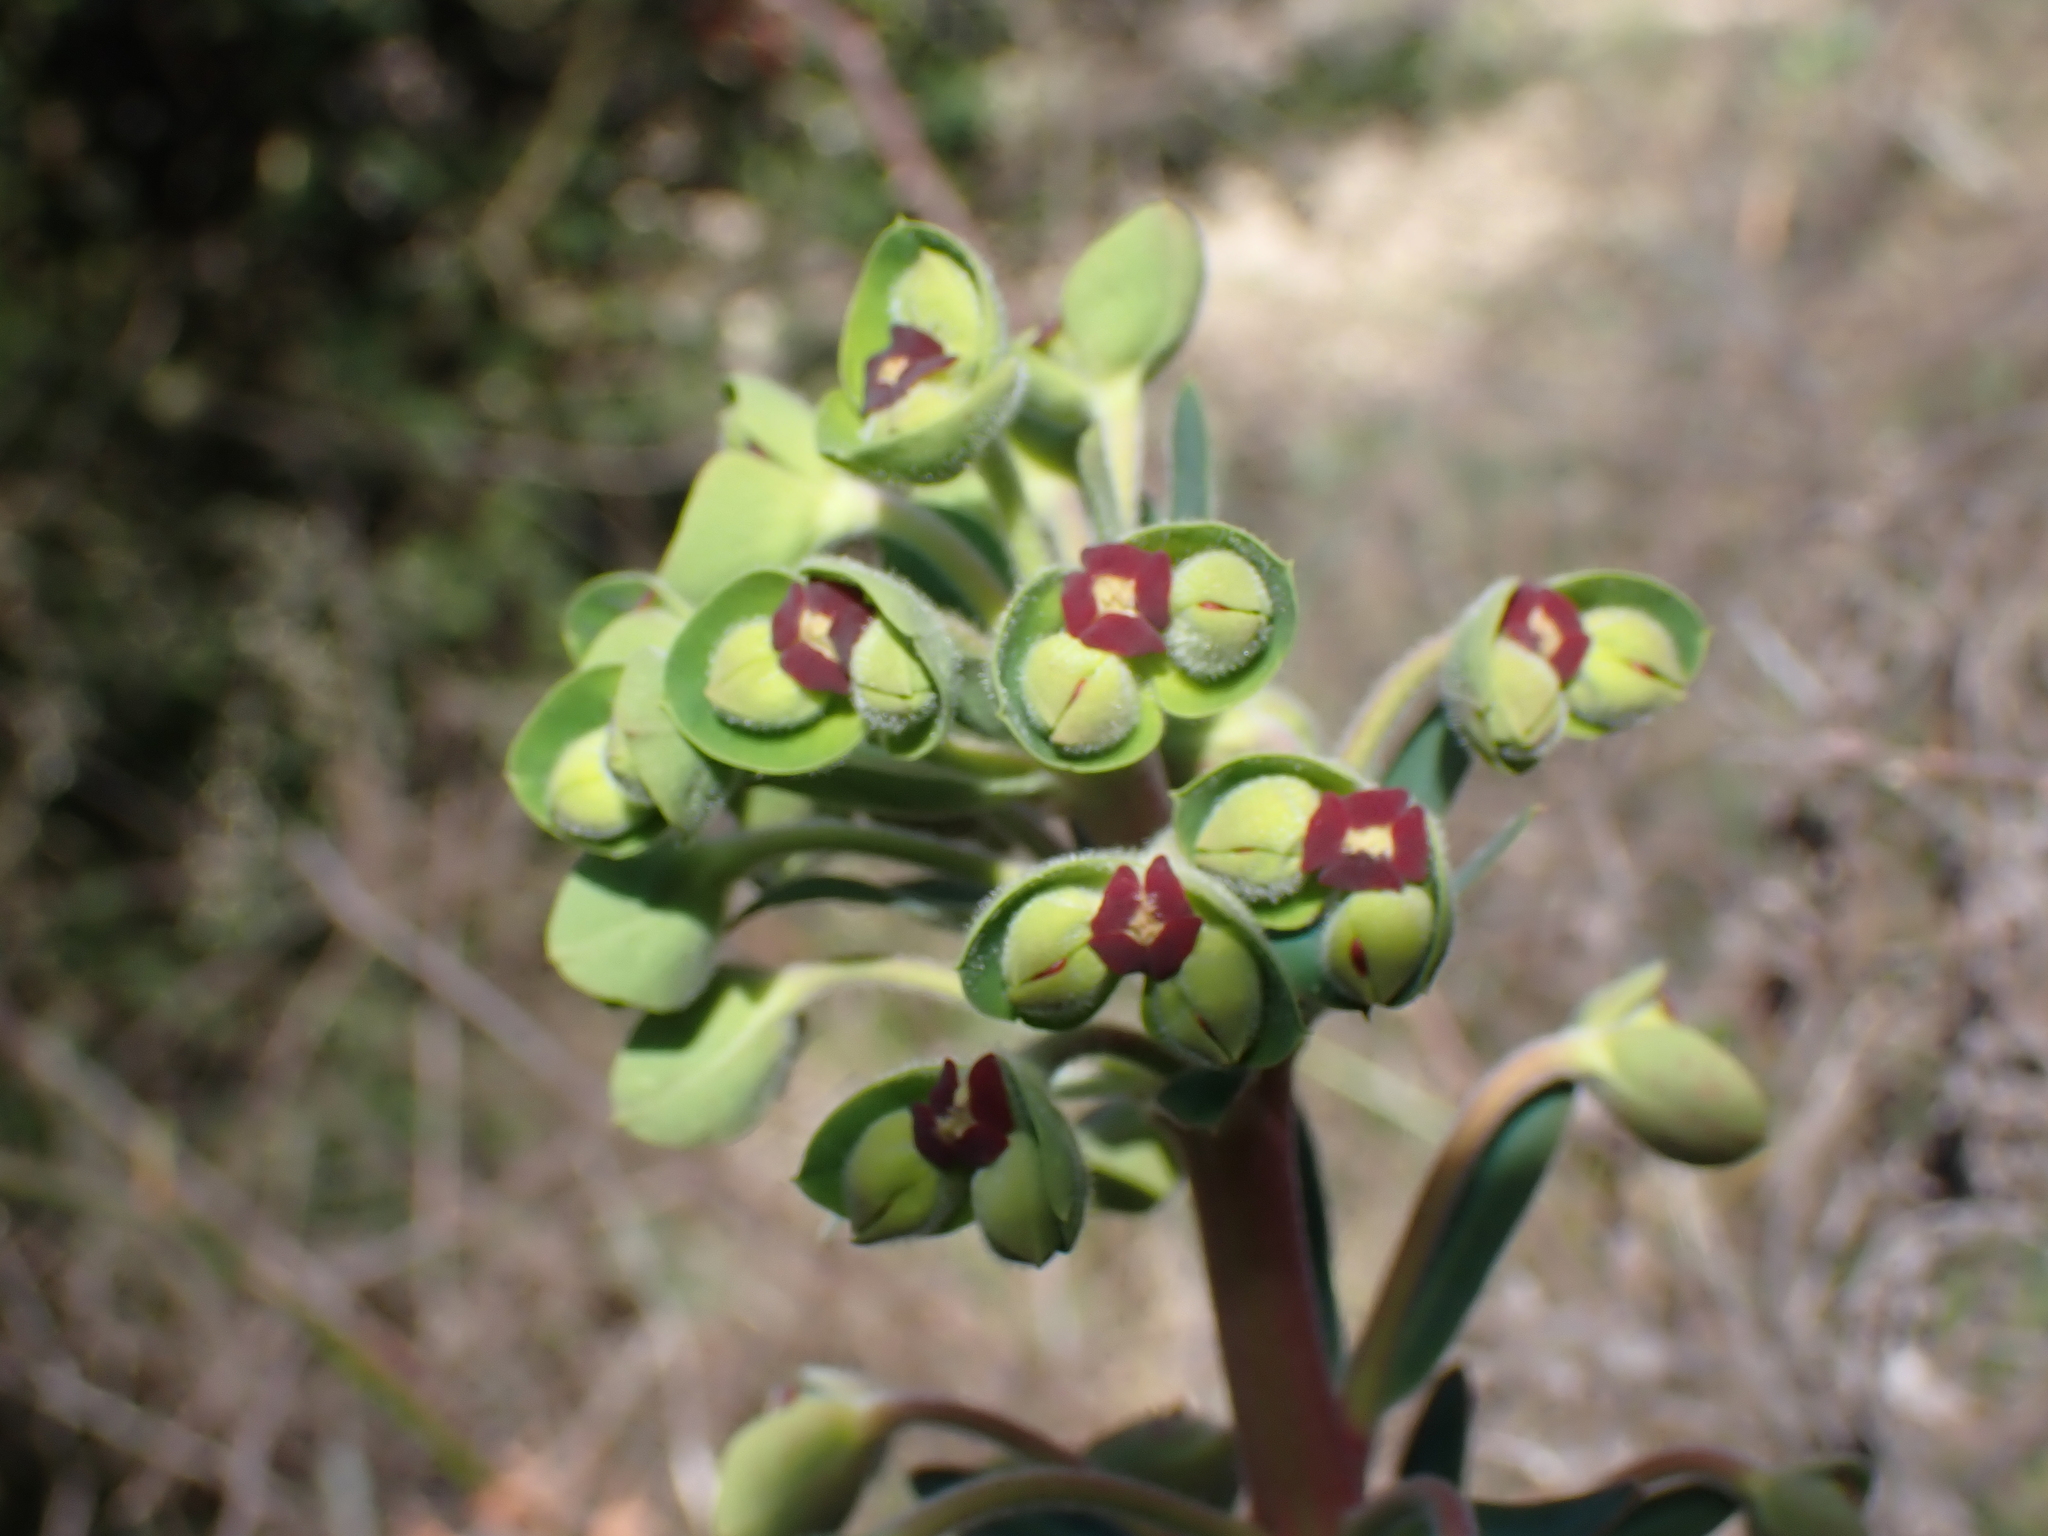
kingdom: Plantae
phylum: Tracheophyta
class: Magnoliopsida
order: Malpighiales
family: Euphorbiaceae
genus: Euphorbia
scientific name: Euphorbia characias
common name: Mediterranean spurge
